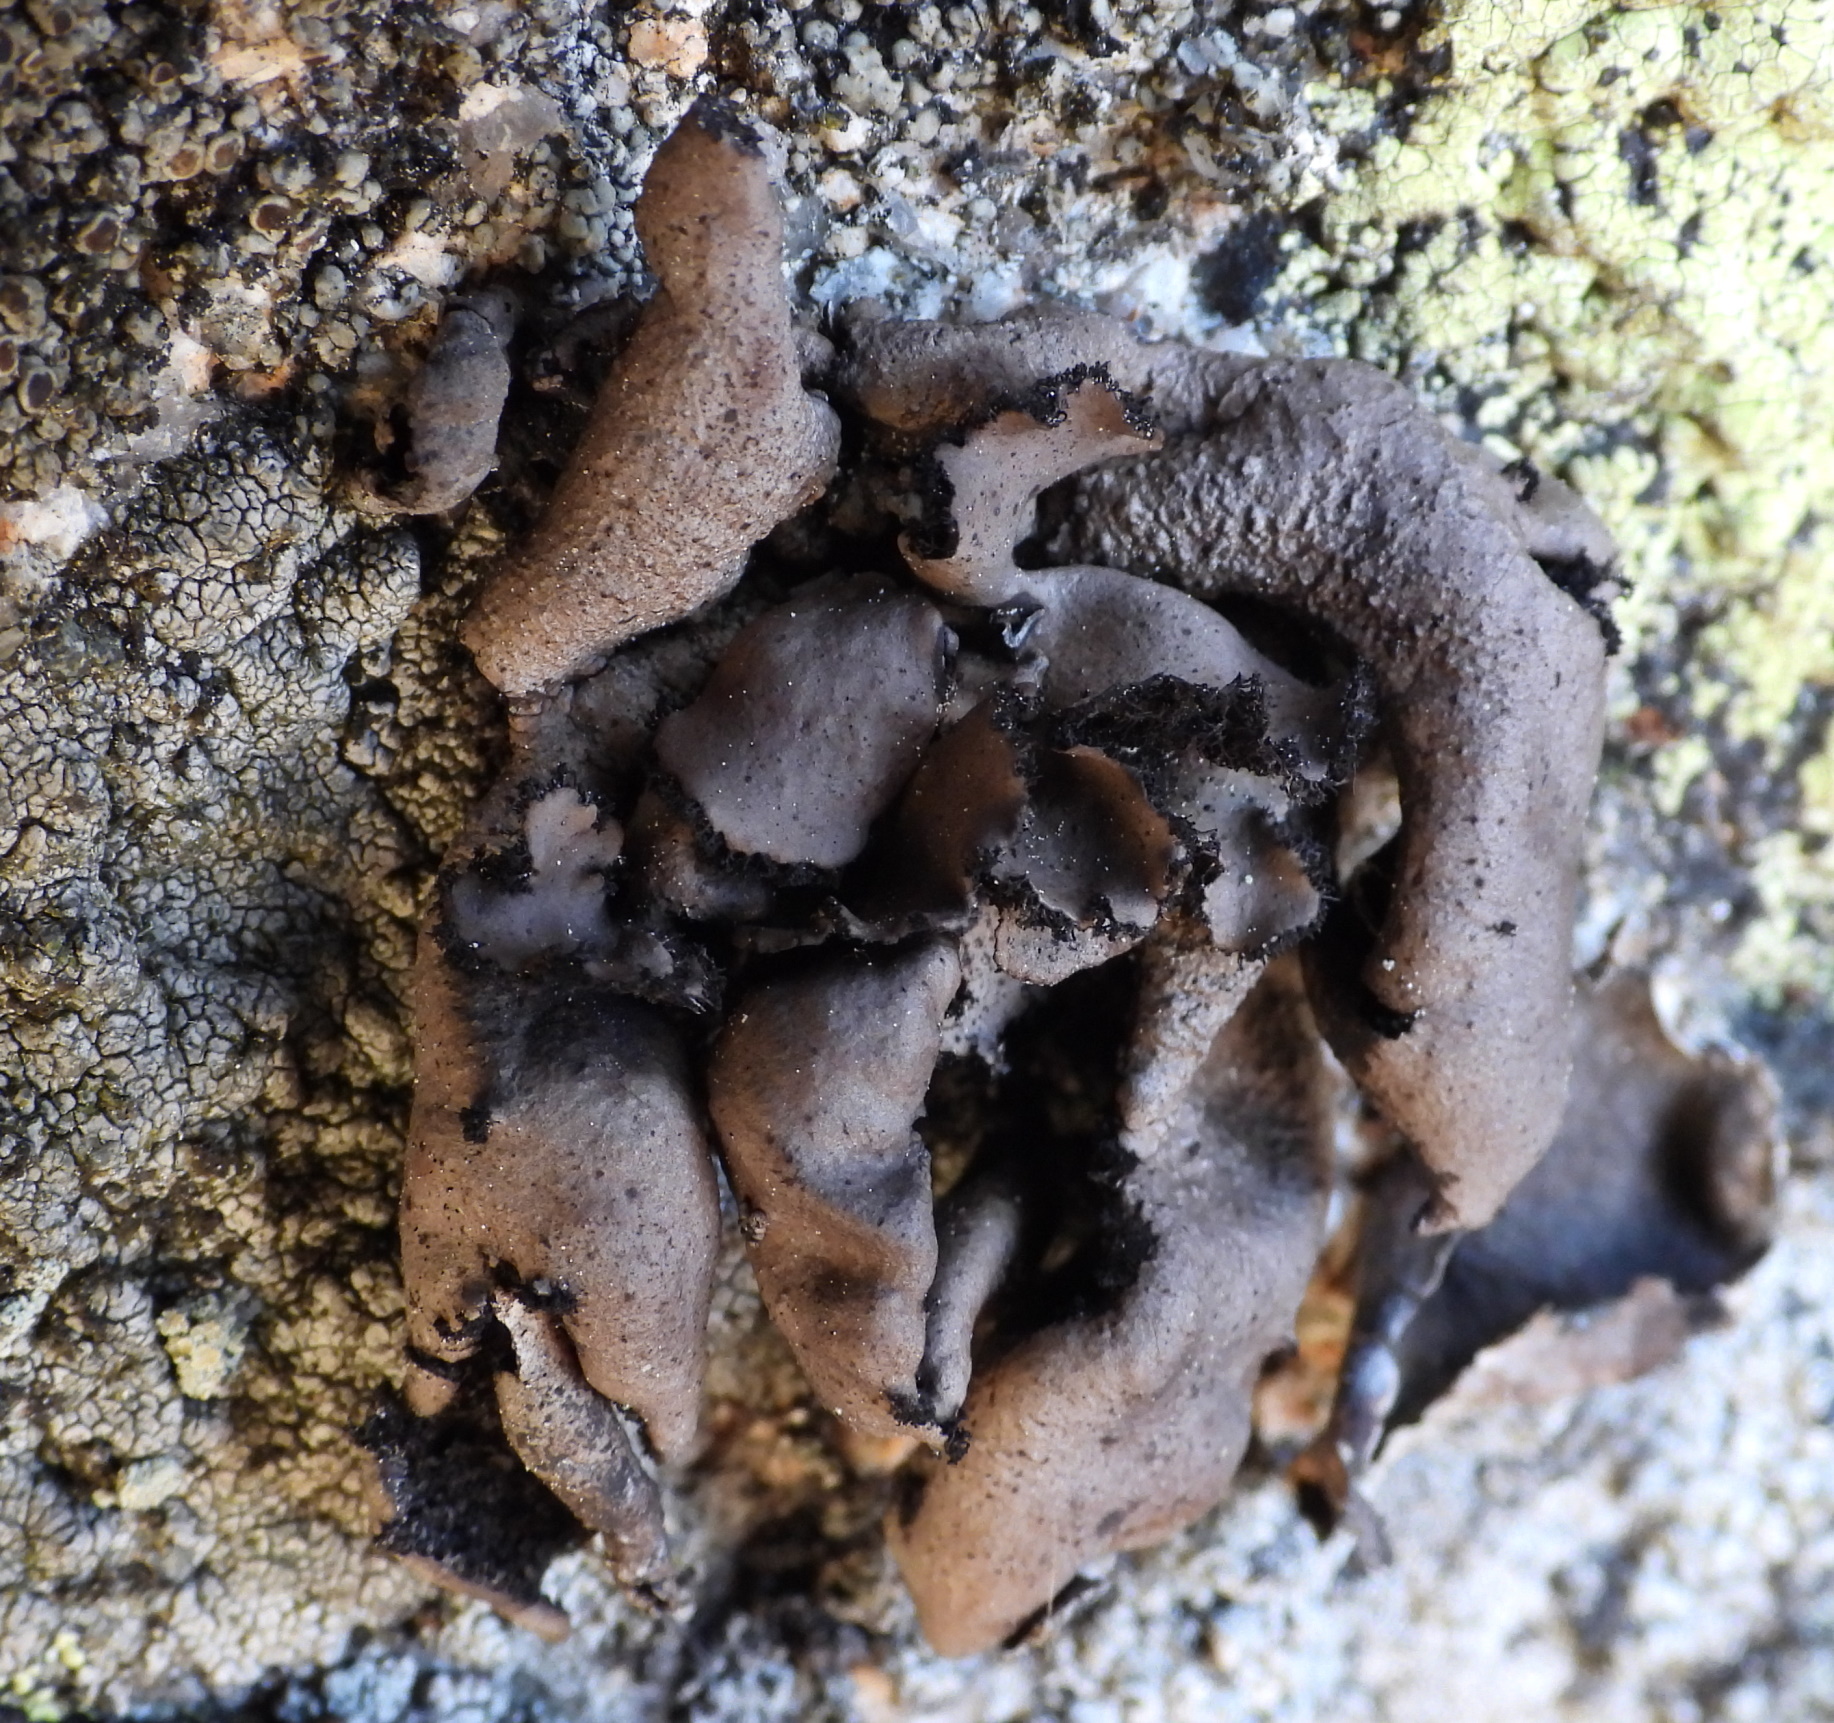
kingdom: Fungi
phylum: Ascomycota
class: Lecanoromycetes
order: Umbilicariales
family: Umbilicariaceae
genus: Umbilicaria
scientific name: Umbilicaria polyrrhiza
